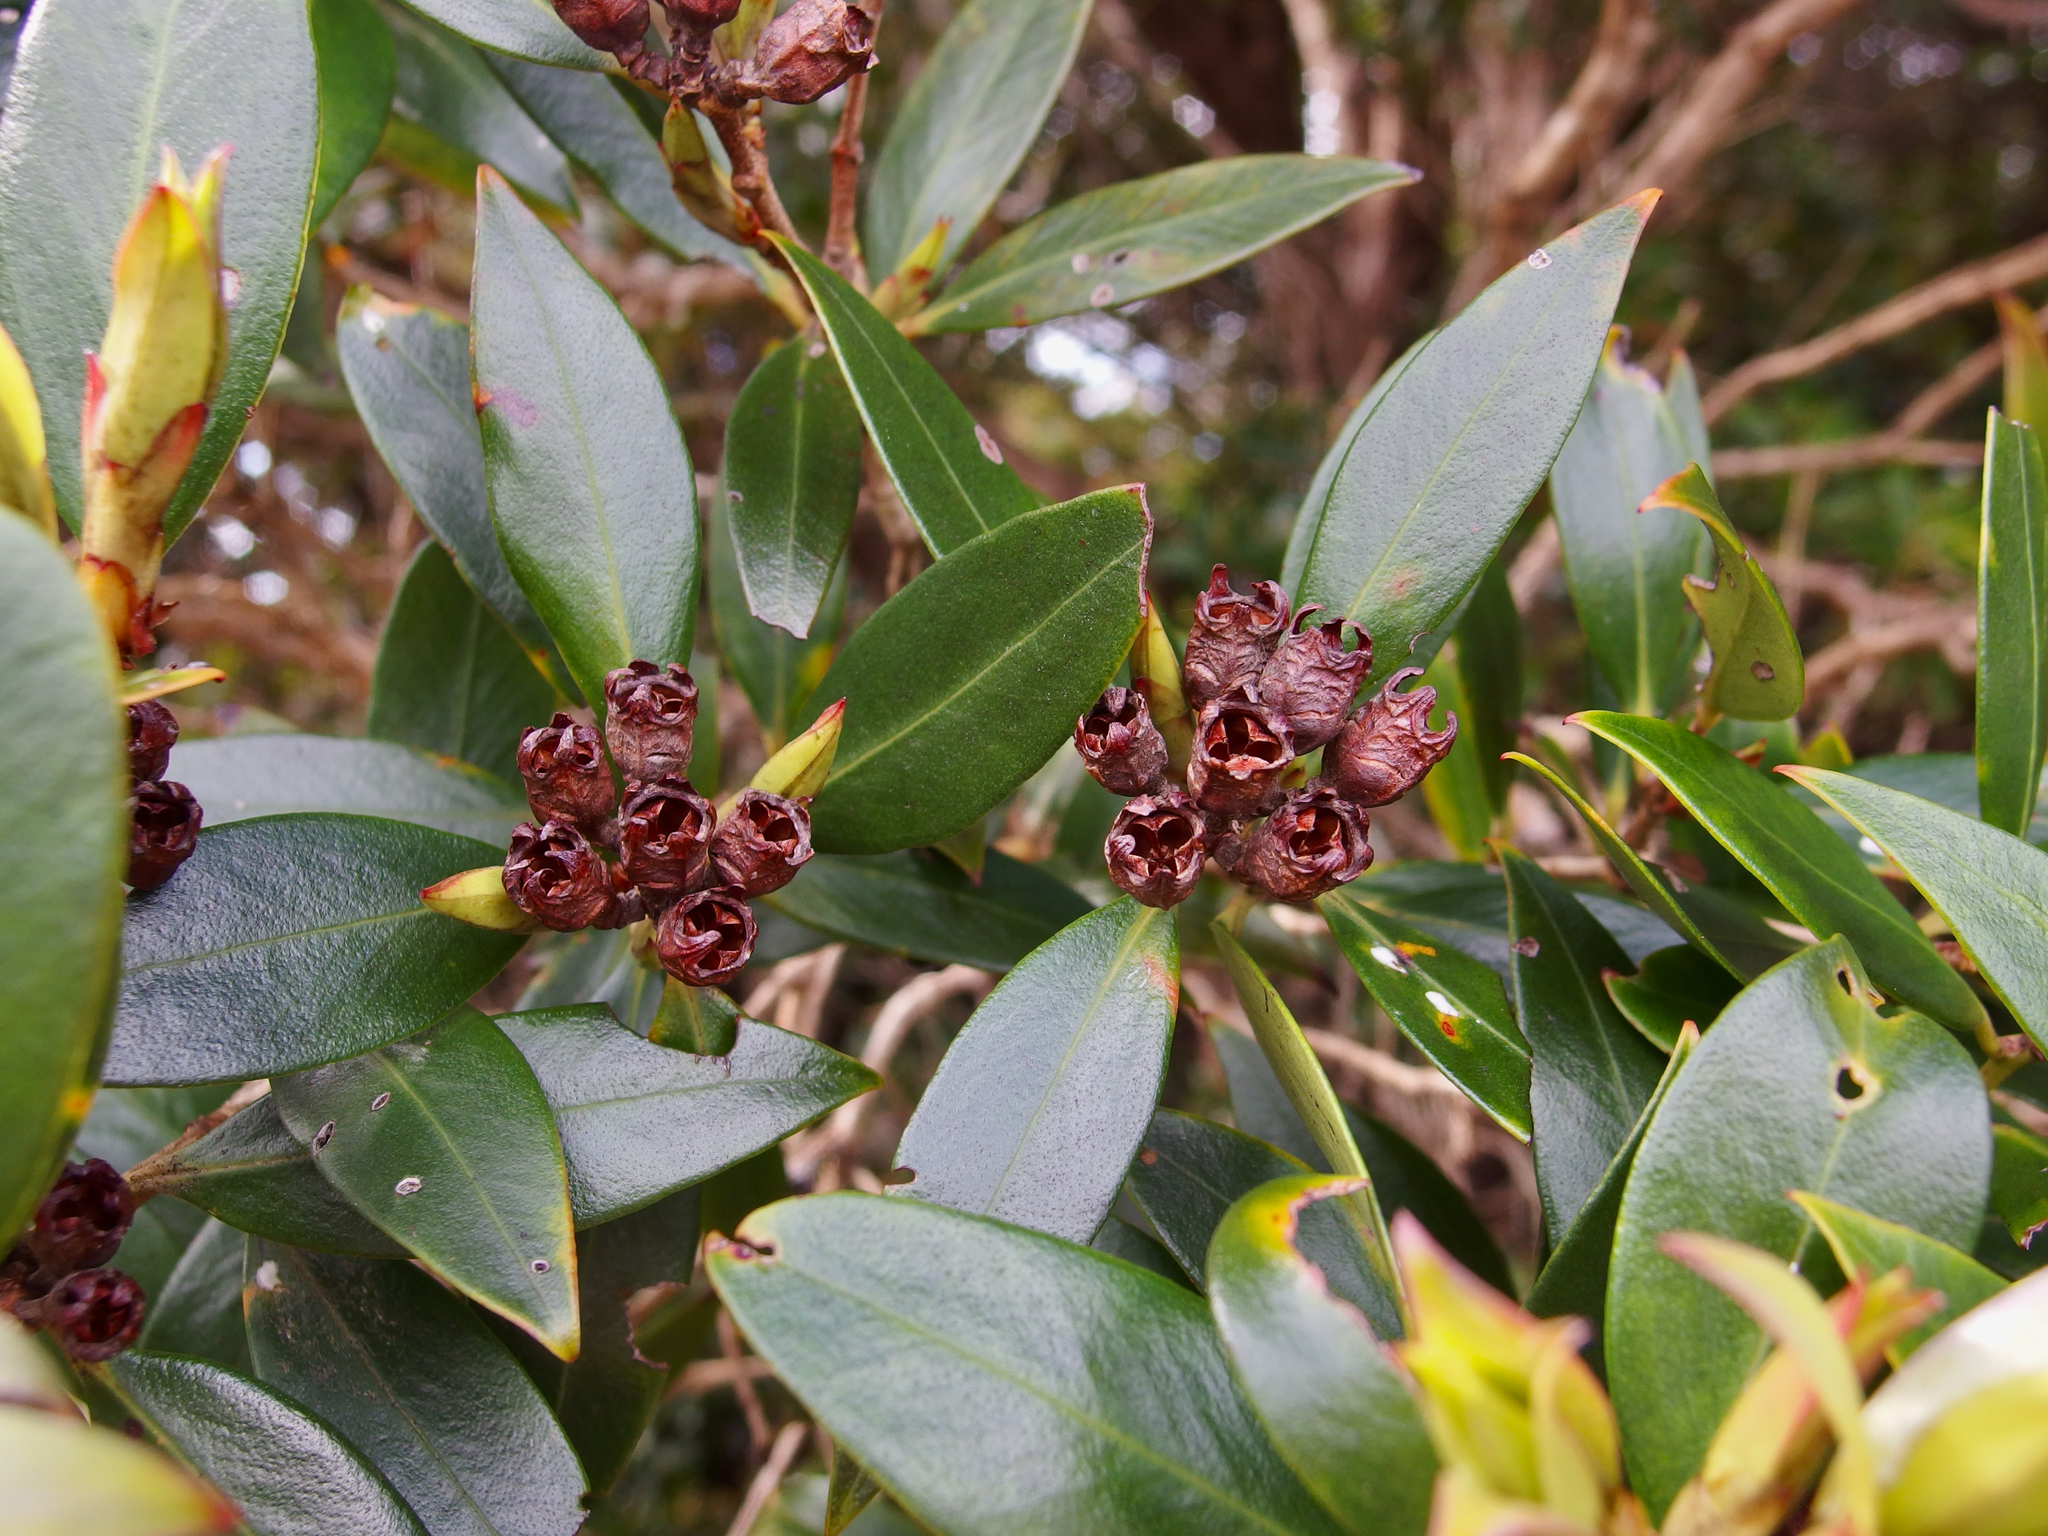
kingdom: Plantae
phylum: Tracheophyta
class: Magnoliopsida
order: Myrtales
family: Myrtaceae
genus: Metrosideros
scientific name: Metrosideros umbellata
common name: Southern rata
